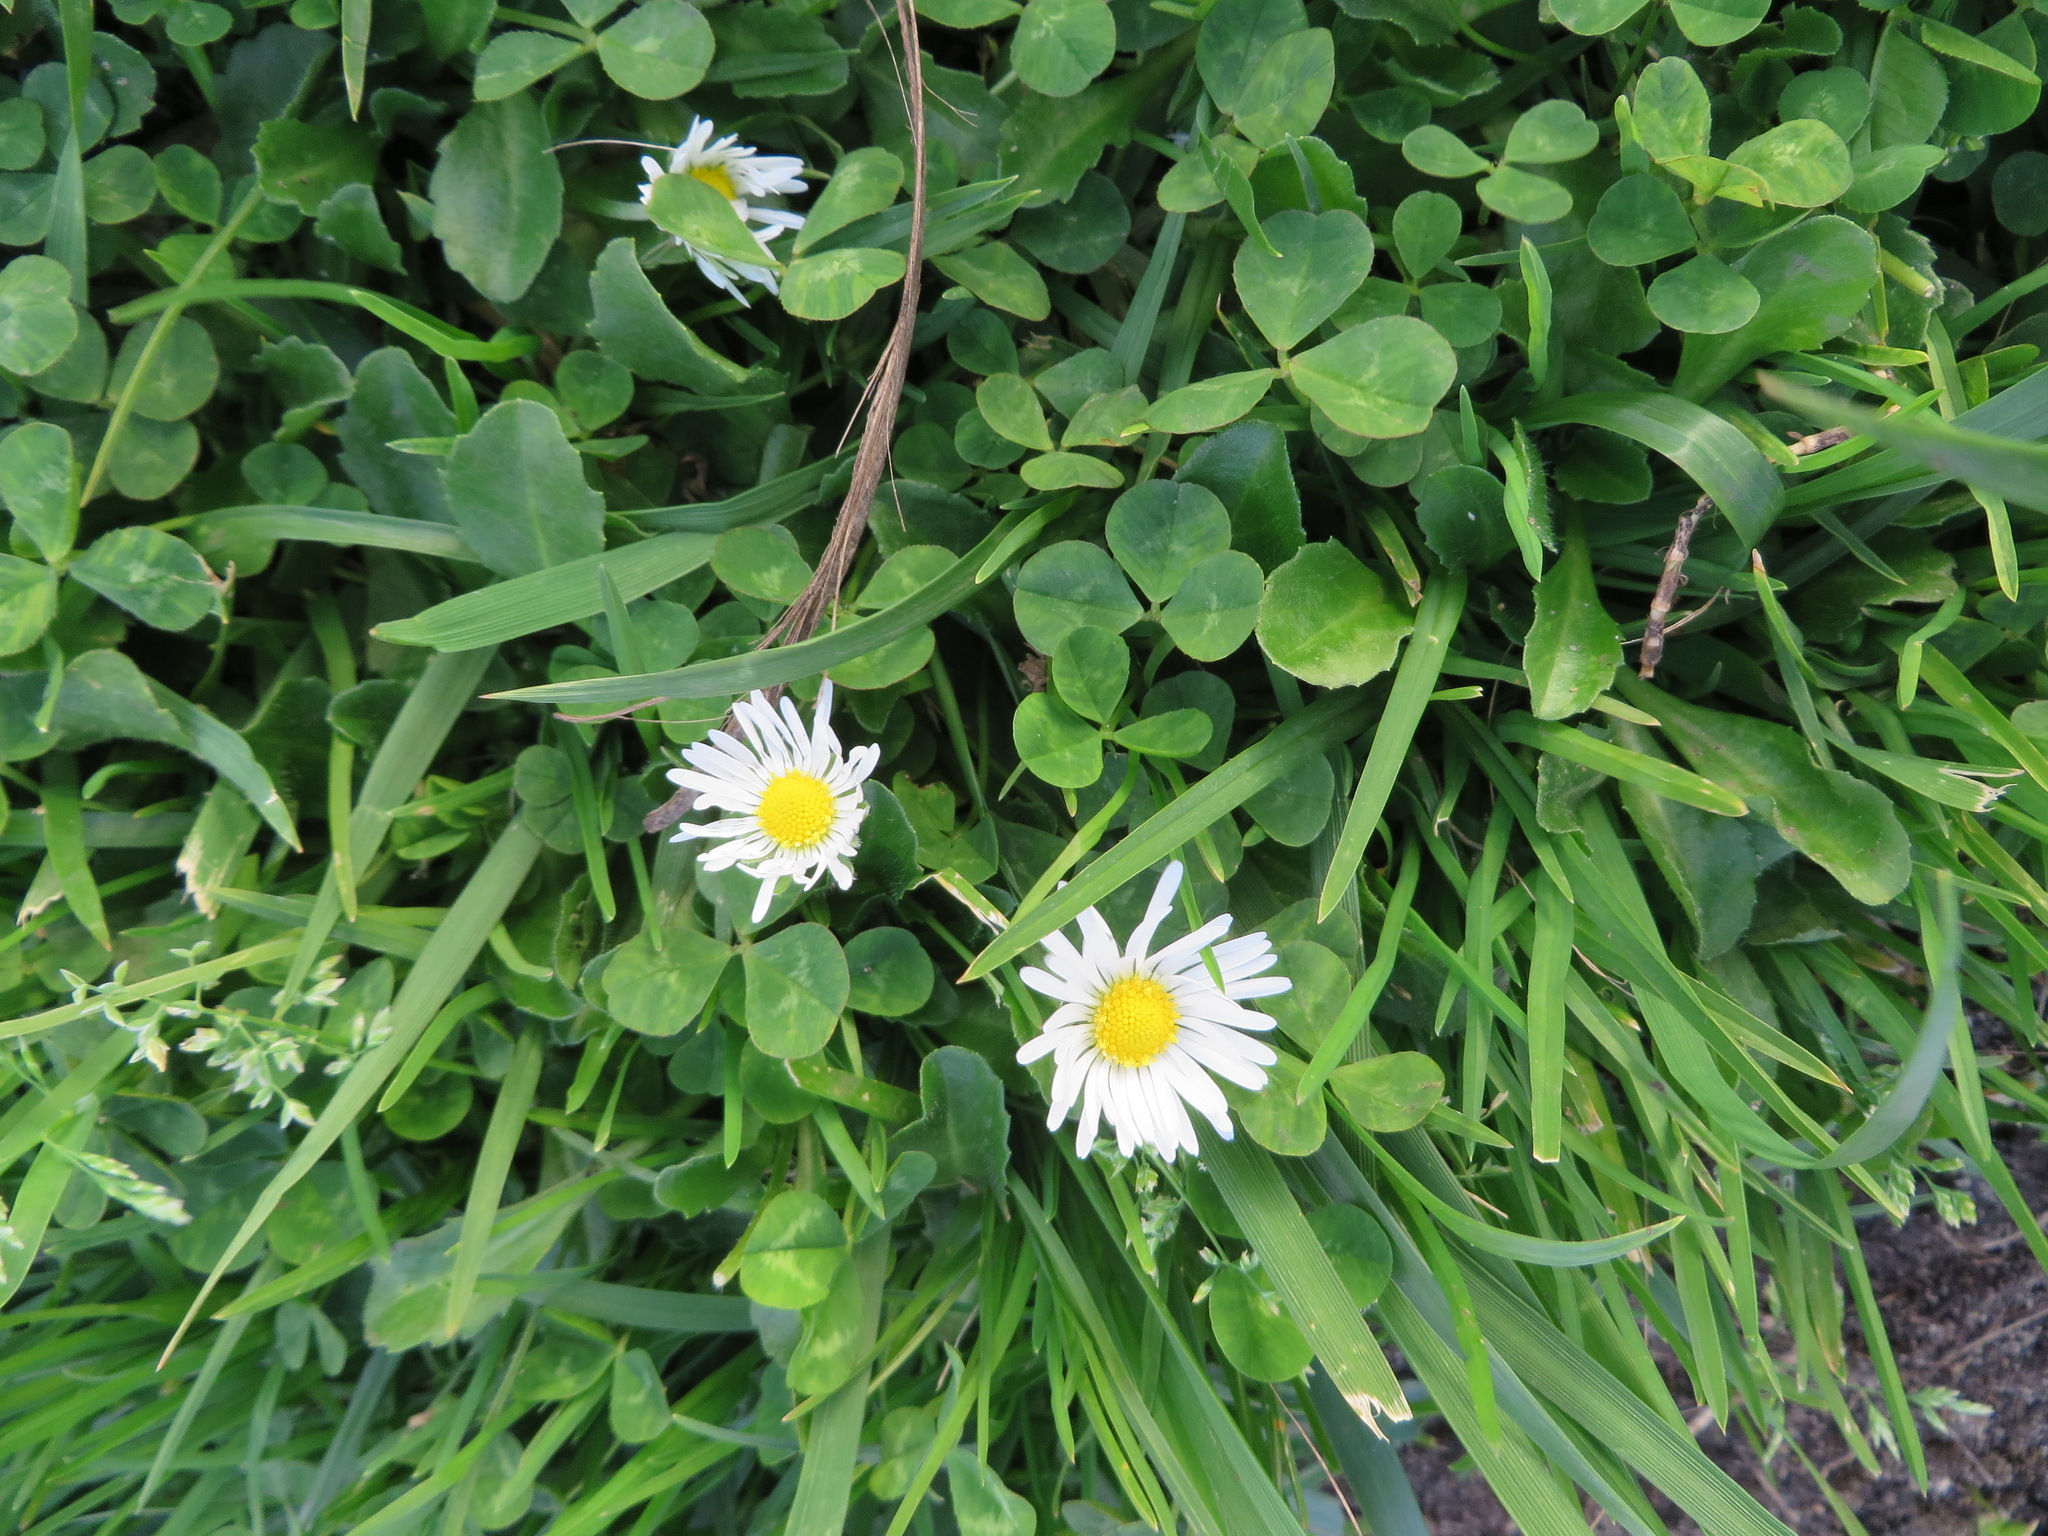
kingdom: Plantae
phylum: Tracheophyta
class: Magnoliopsida
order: Asterales
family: Asteraceae
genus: Bellis
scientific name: Bellis perennis
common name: Lawndaisy
